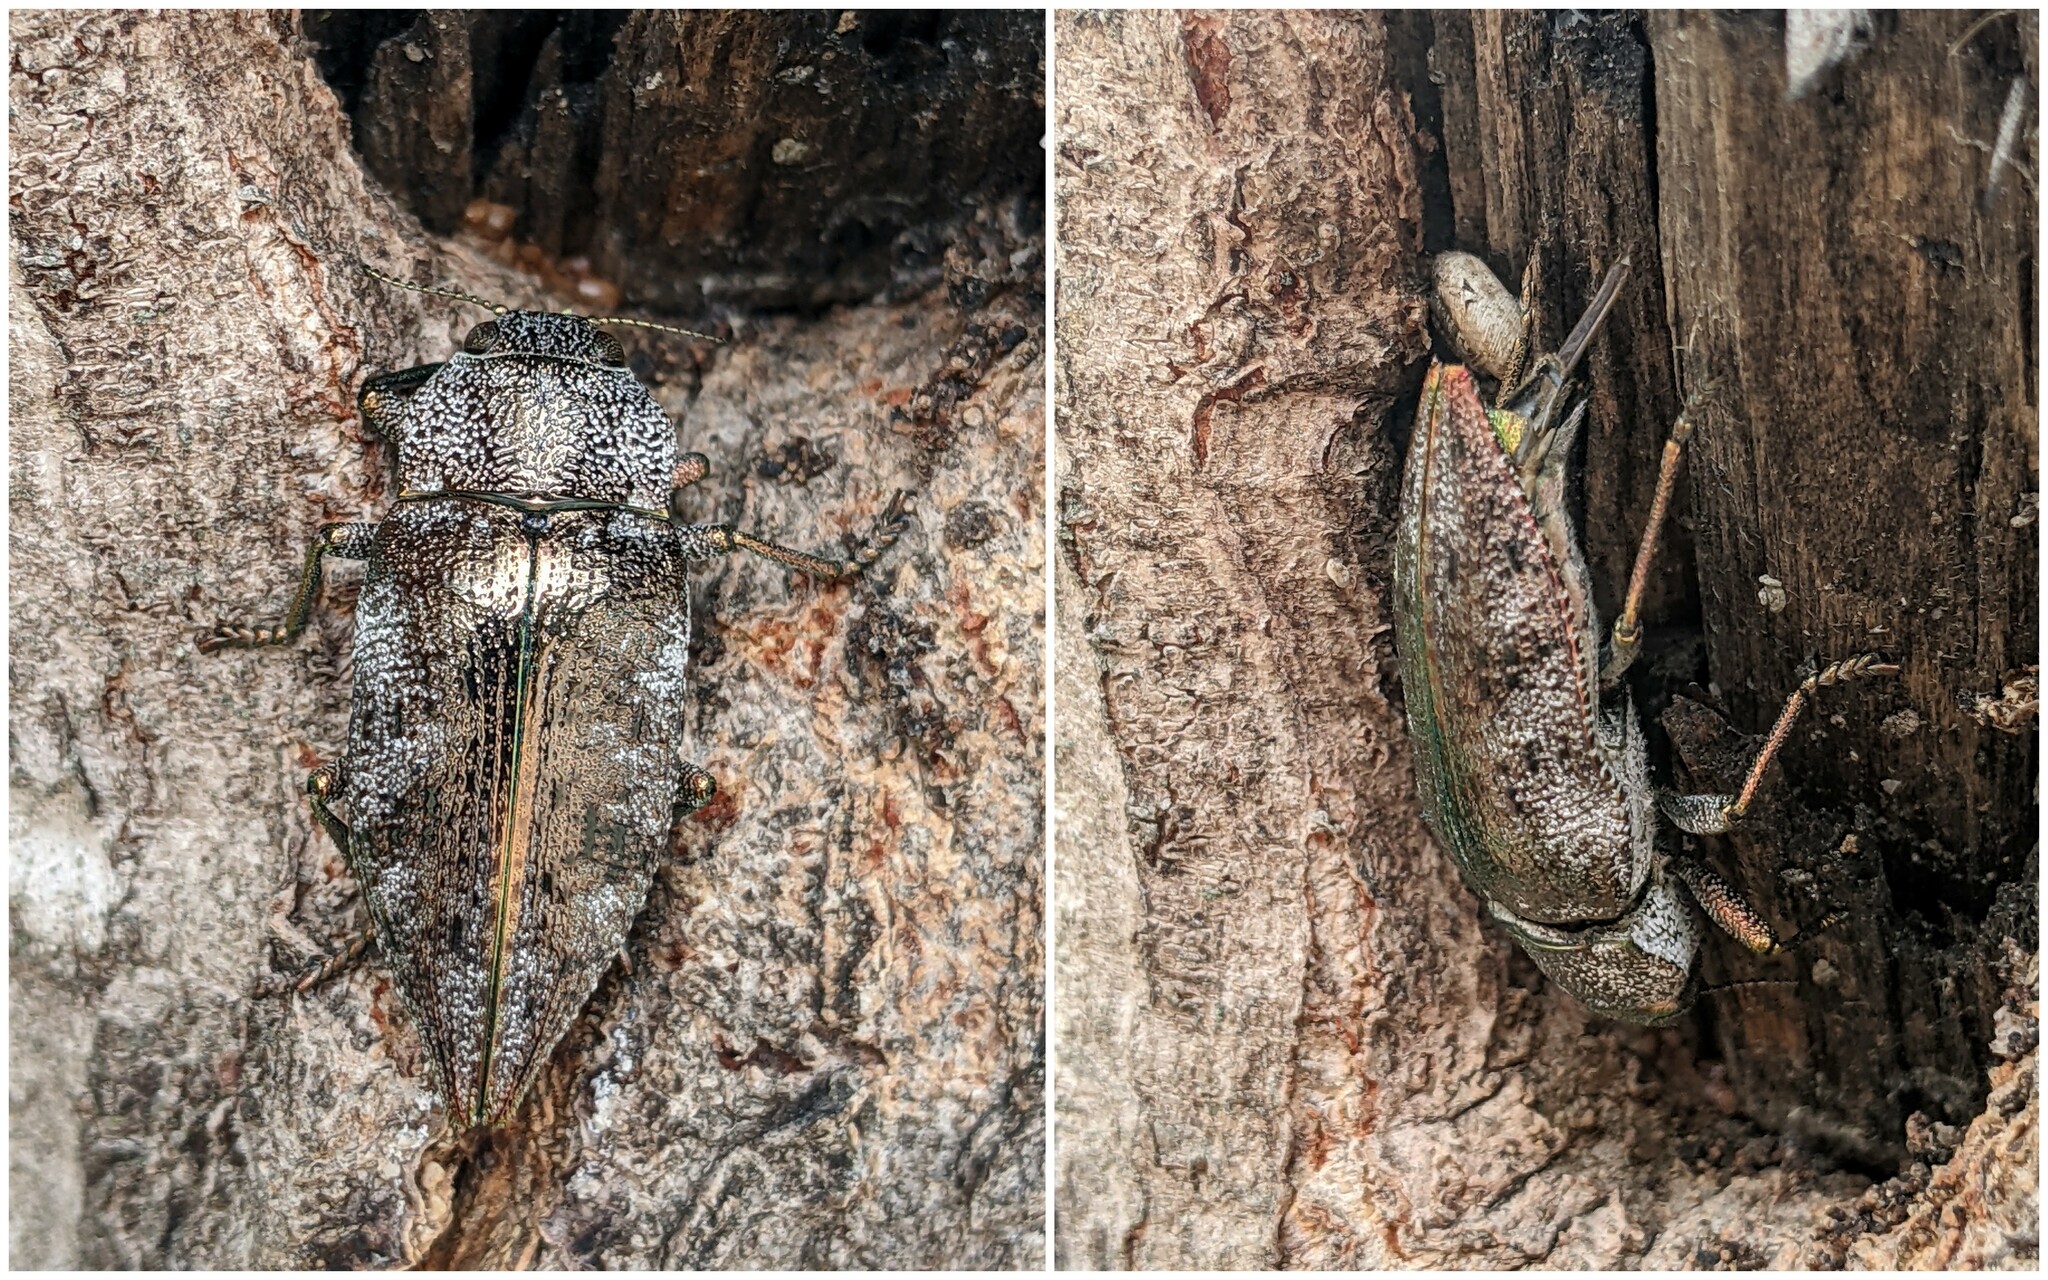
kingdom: Animalia
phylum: Arthropoda
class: Insecta
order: Coleoptera
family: Buprestidae
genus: Dicerca
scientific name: Dicerca aenea
